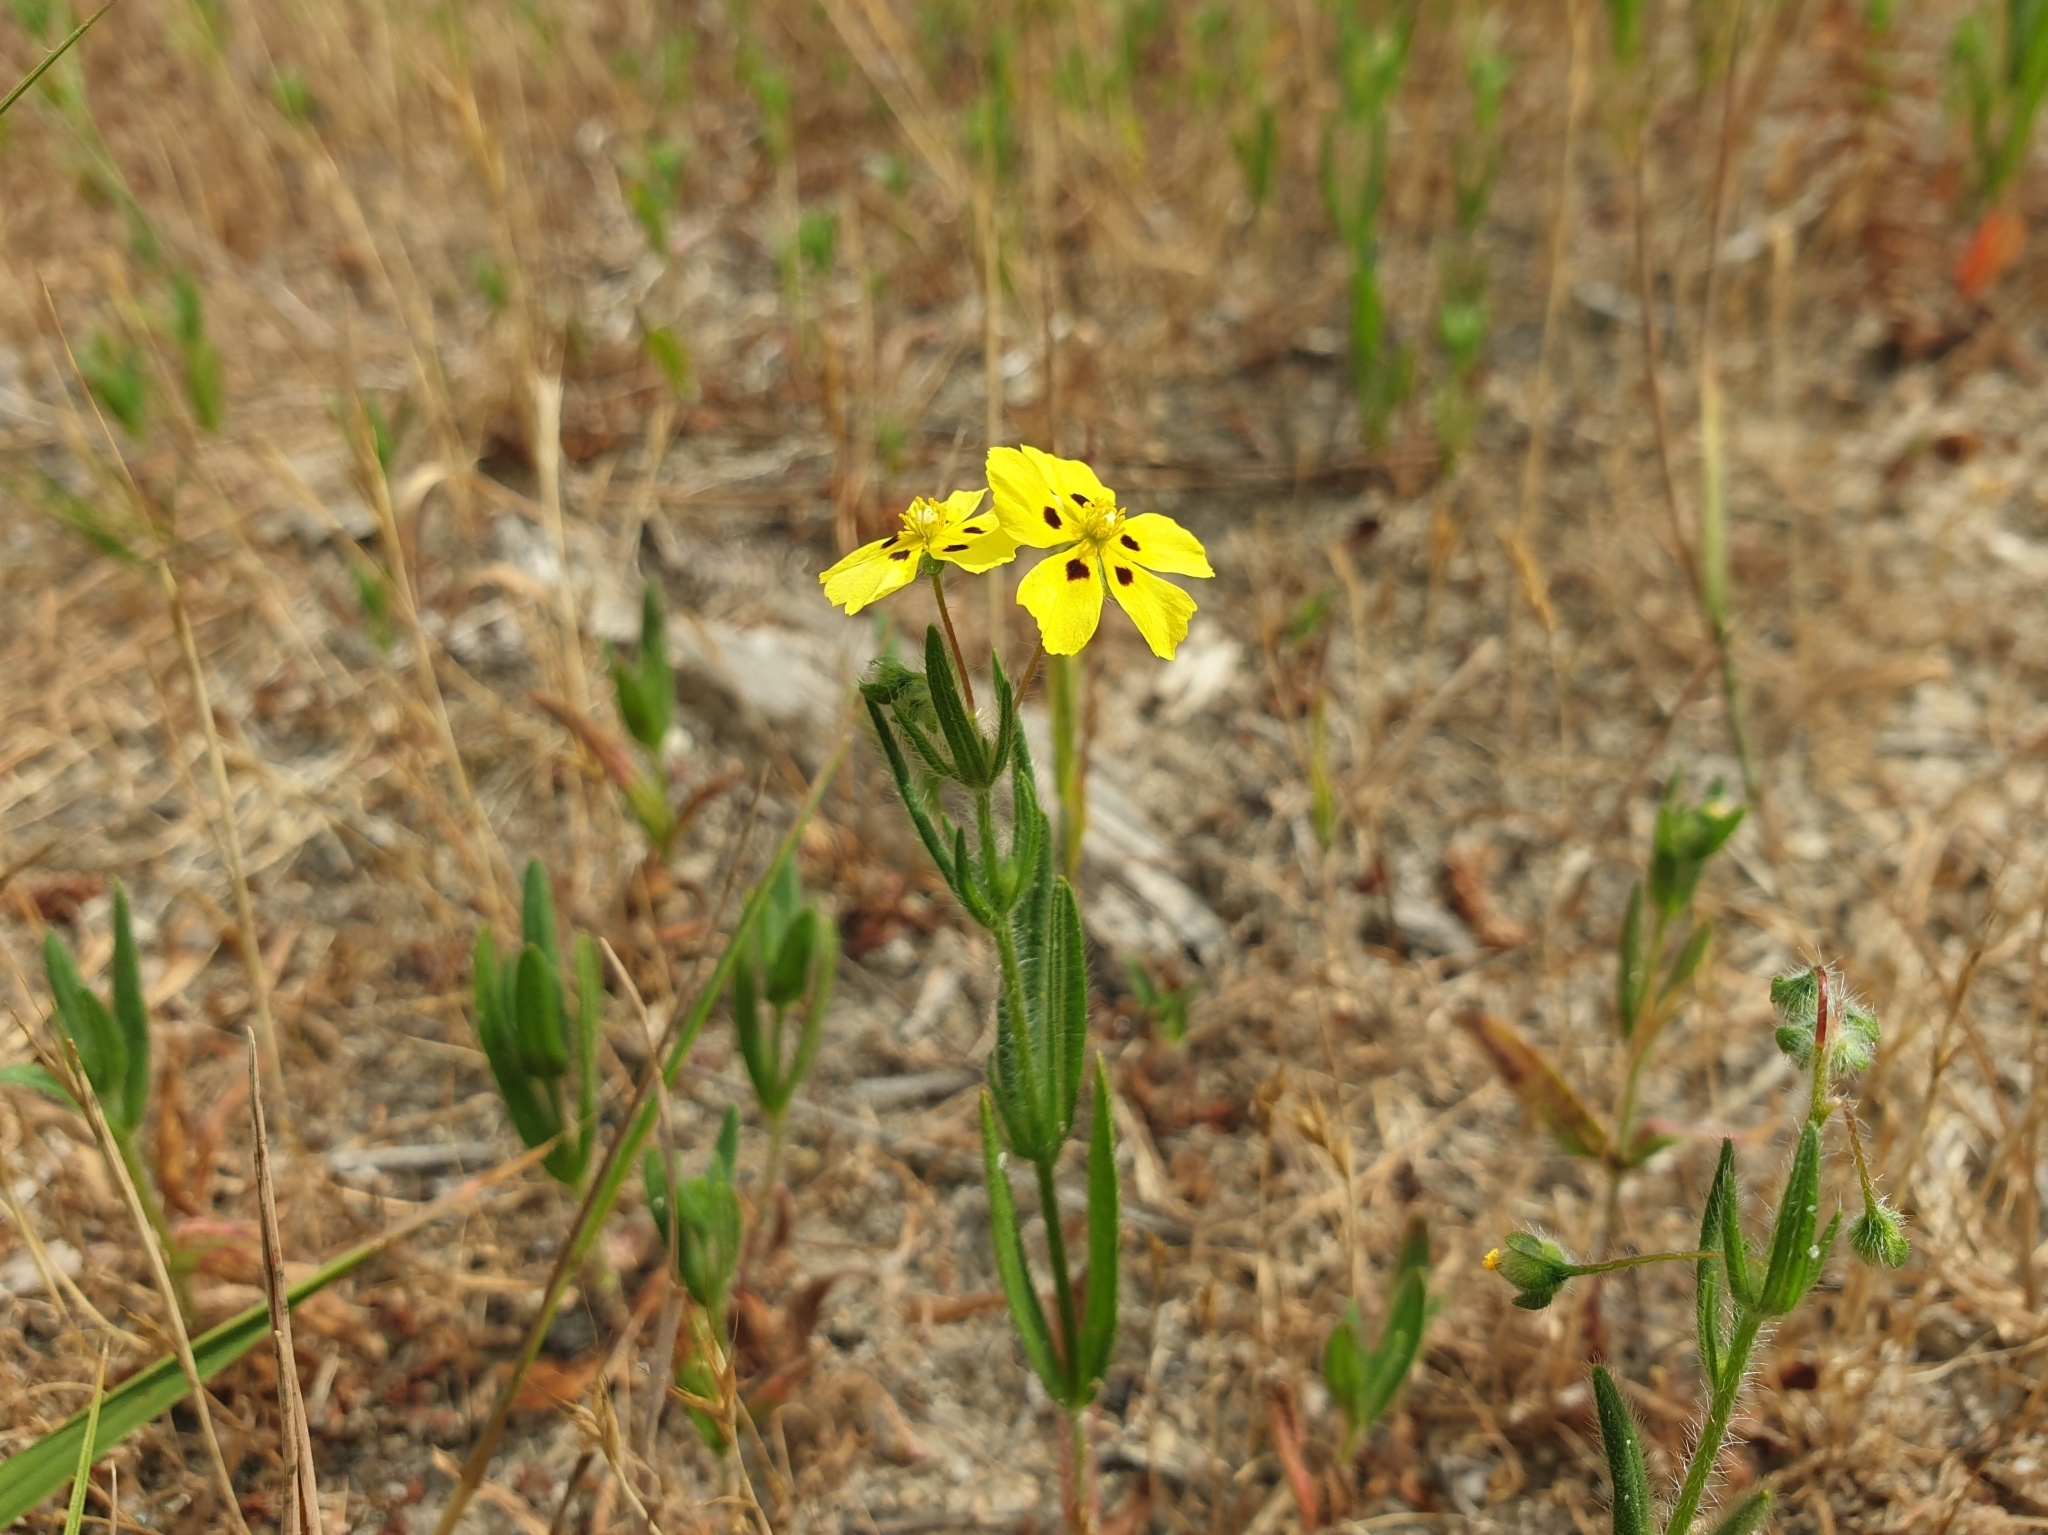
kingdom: Plantae
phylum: Tracheophyta
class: Magnoliopsida
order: Malvales
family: Cistaceae
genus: Tuberaria
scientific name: Tuberaria guttata
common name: Spotted rock-rose
